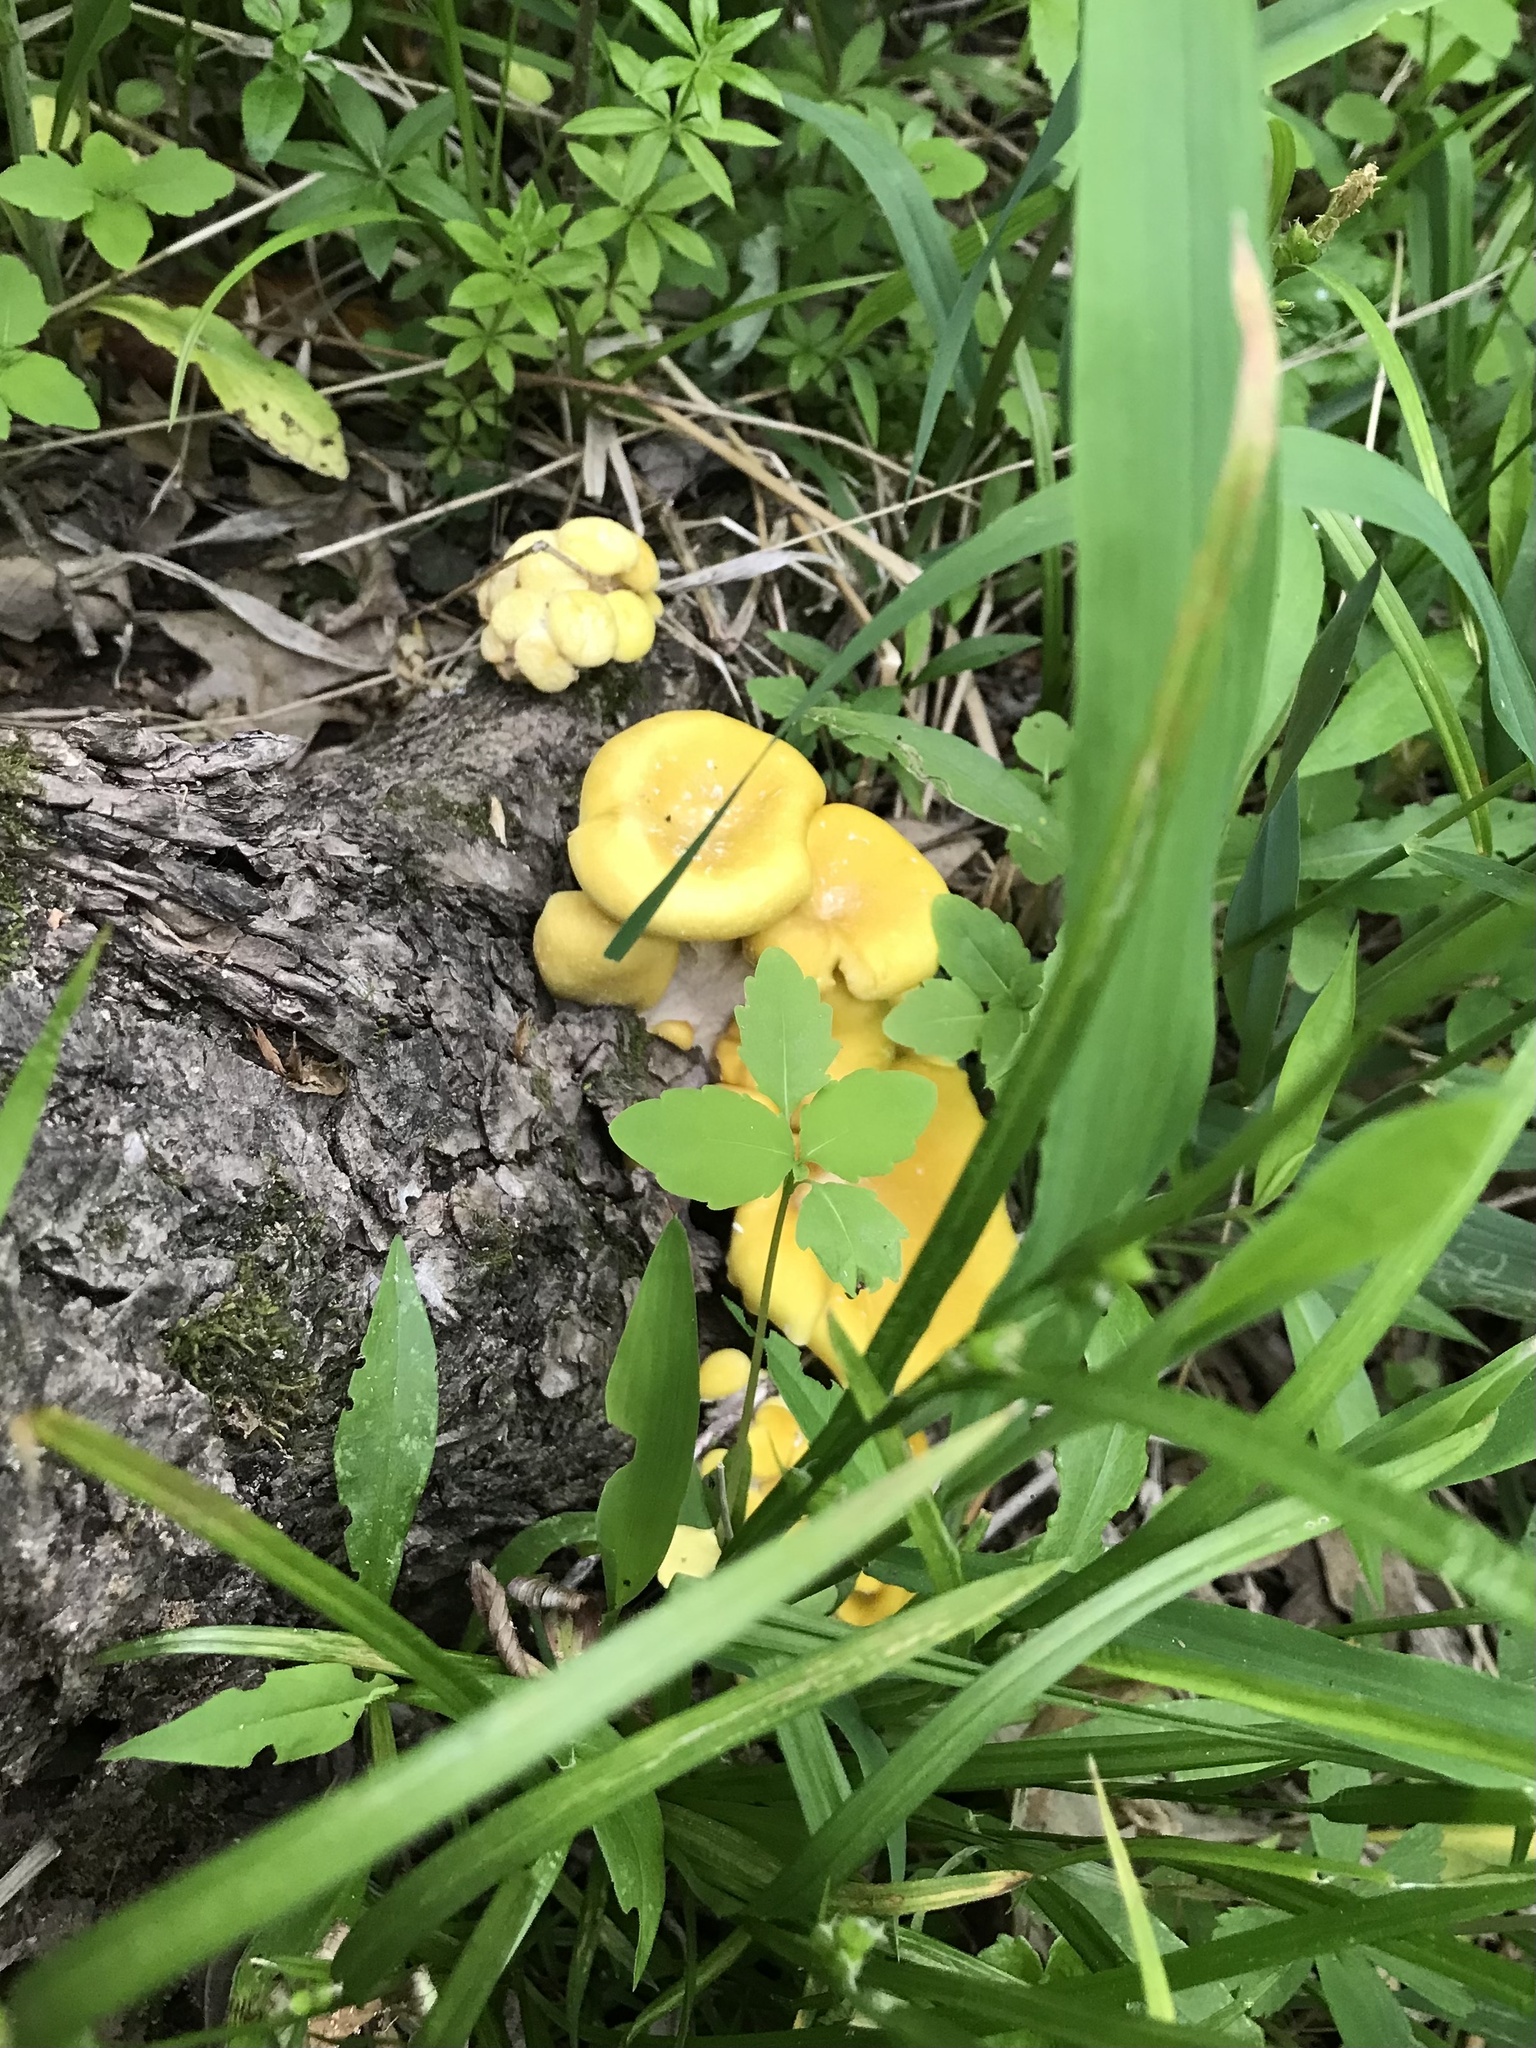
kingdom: Fungi
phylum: Basidiomycota
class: Agaricomycetes
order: Agaricales
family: Pleurotaceae
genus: Pleurotus
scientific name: Pleurotus citrinopileatus
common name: Golden oyster mushroom
